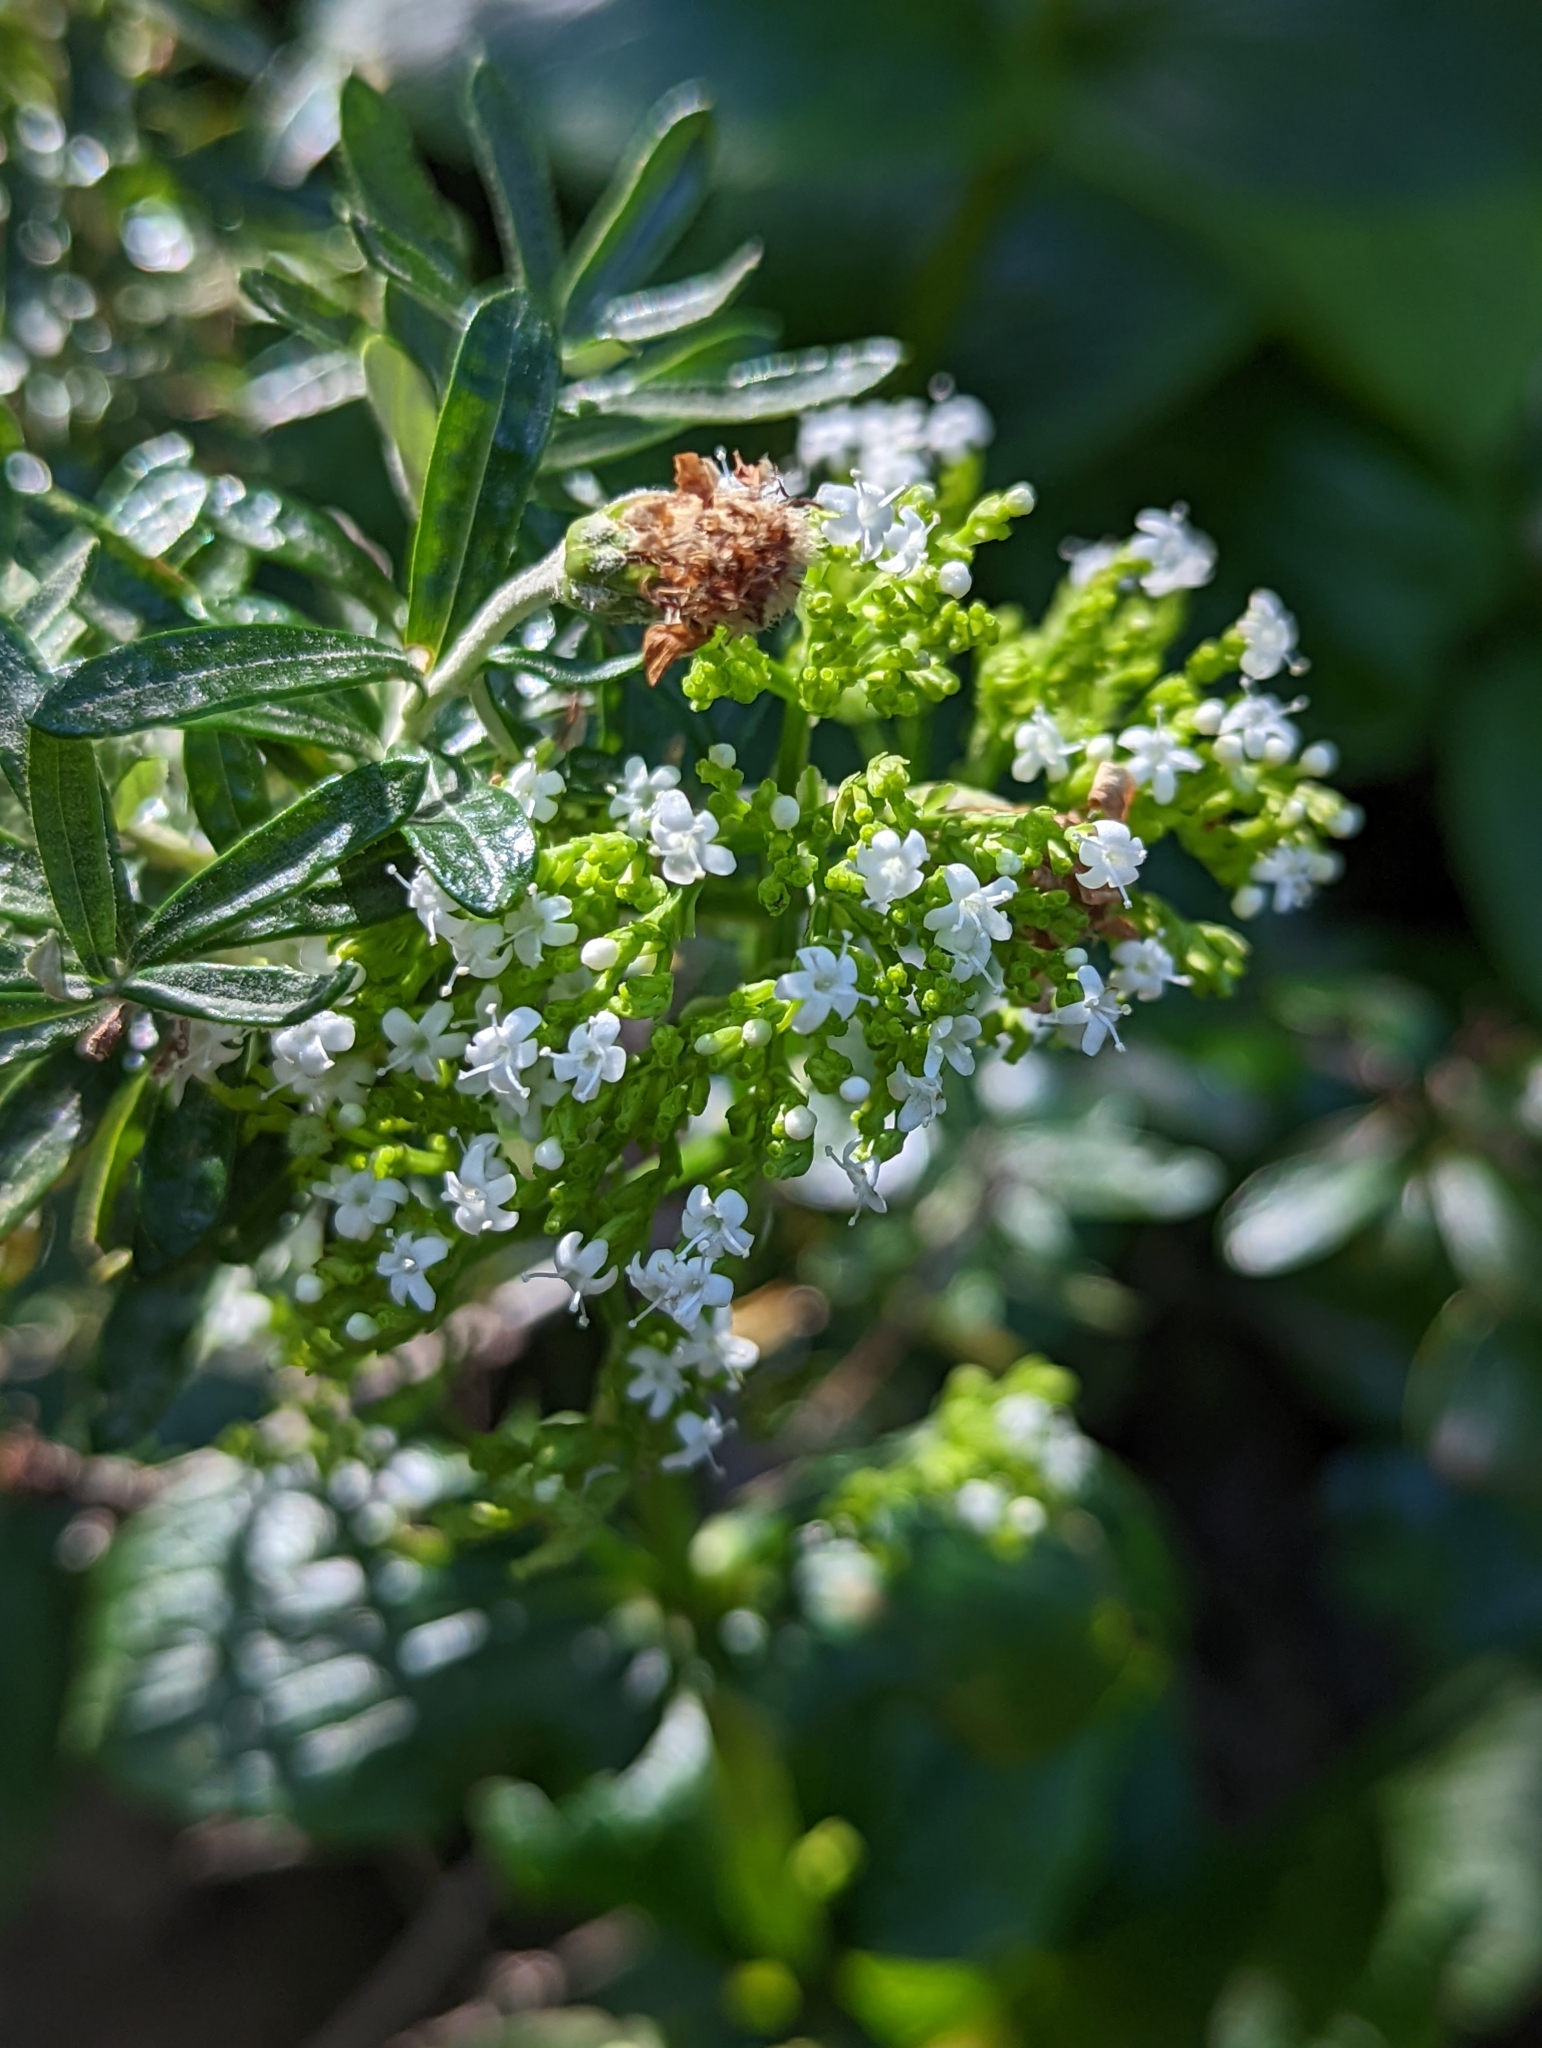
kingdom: Plantae
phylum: Tracheophyta
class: Magnoliopsida
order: Dipsacales
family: Caprifoliaceae
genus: Valeriana
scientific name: Valeriana lapathifolia
